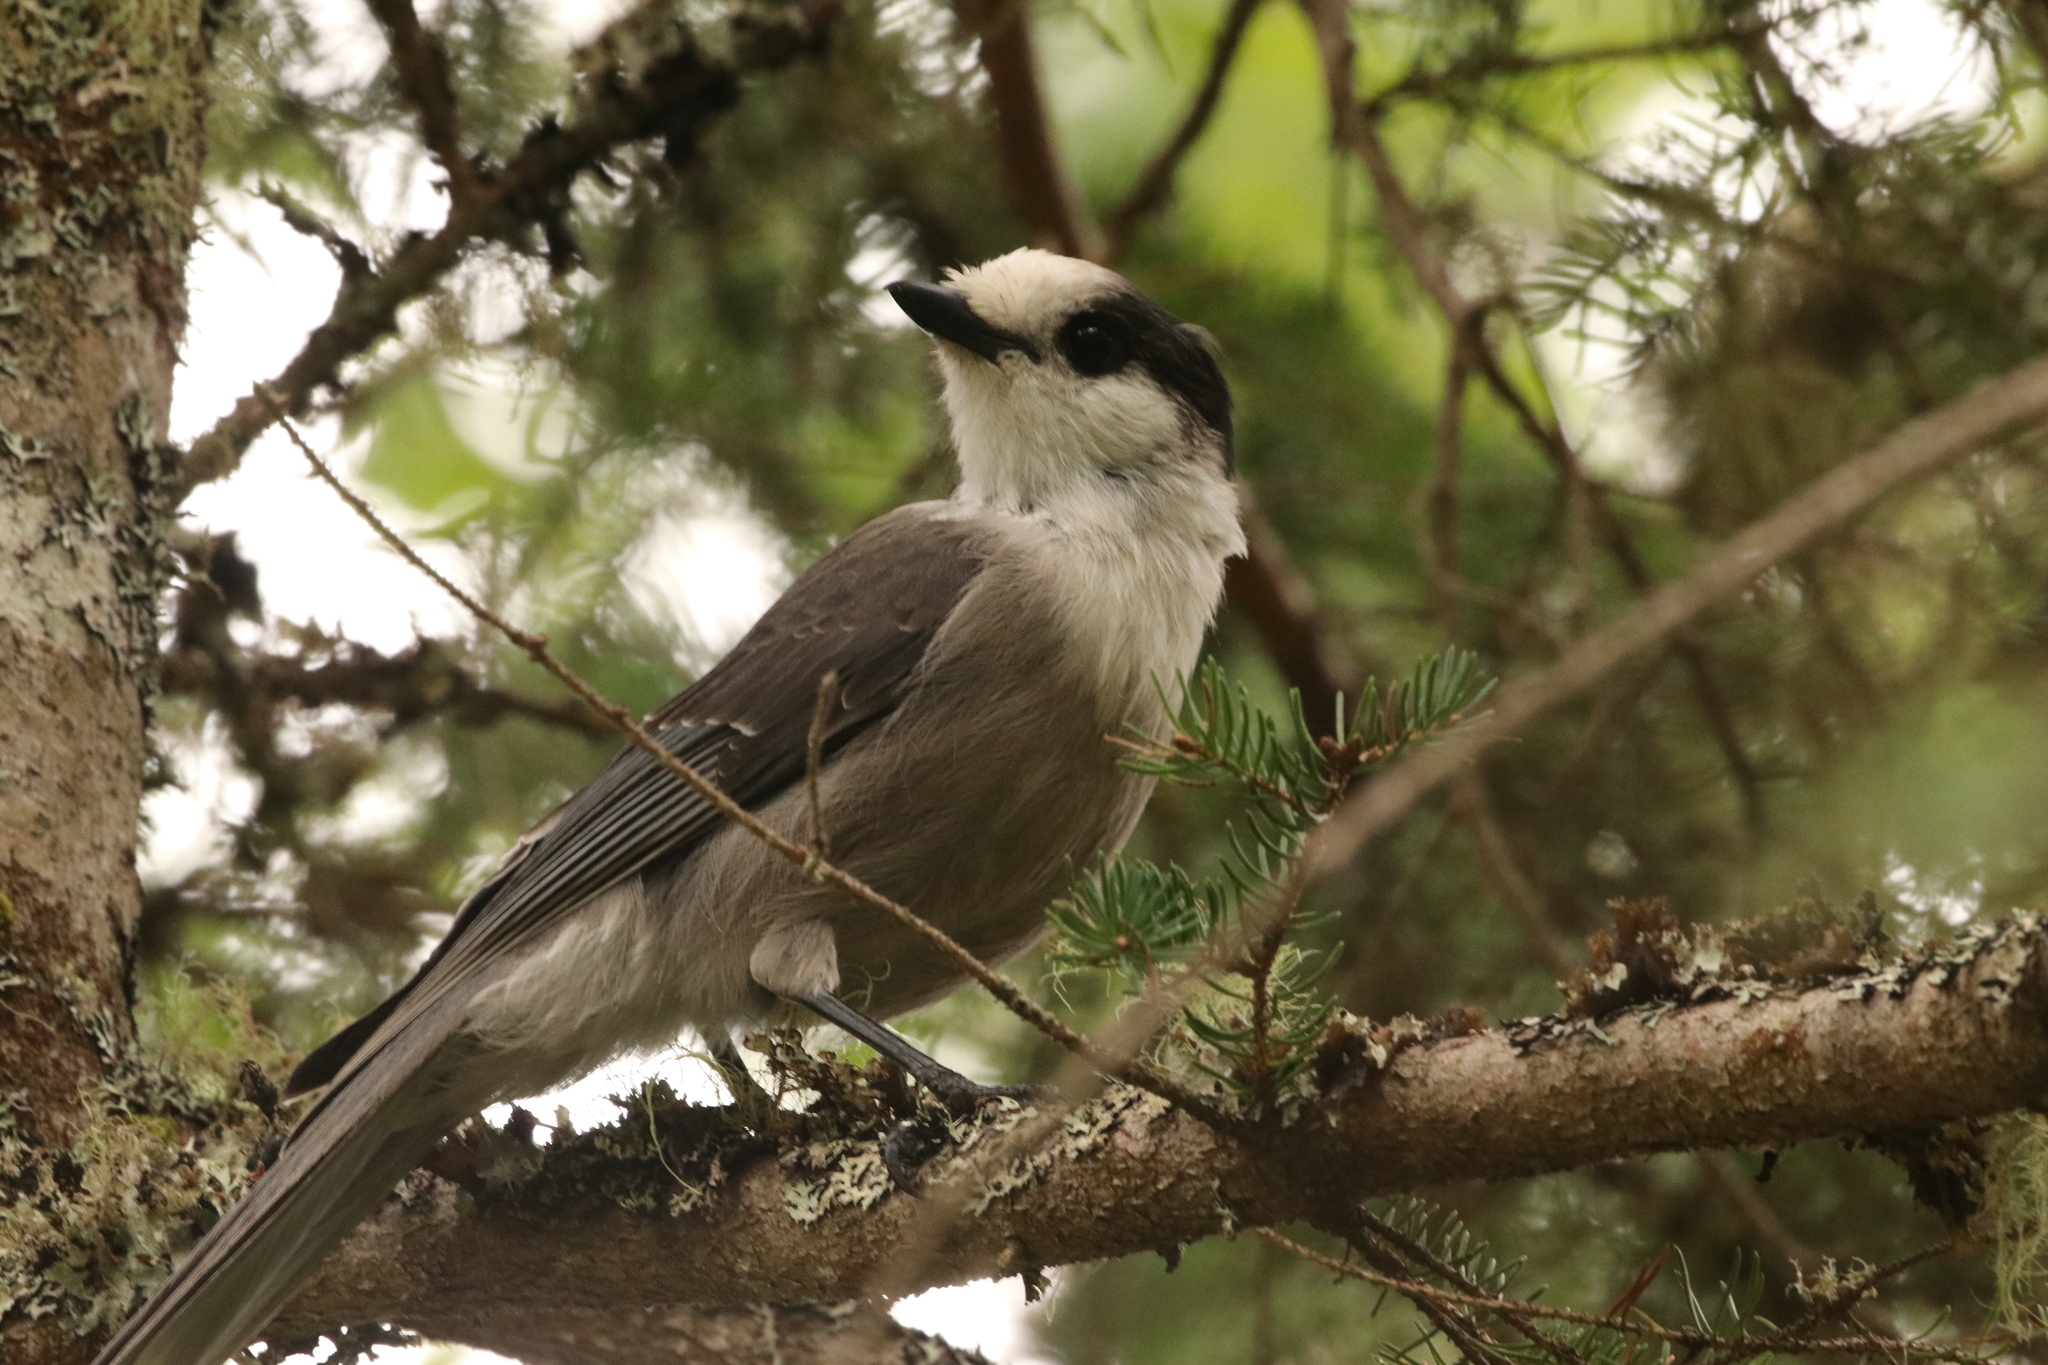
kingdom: Animalia
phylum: Chordata
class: Aves
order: Passeriformes
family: Corvidae
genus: Perisoreus
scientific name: Perisoreus canadensis
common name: Gray jay
